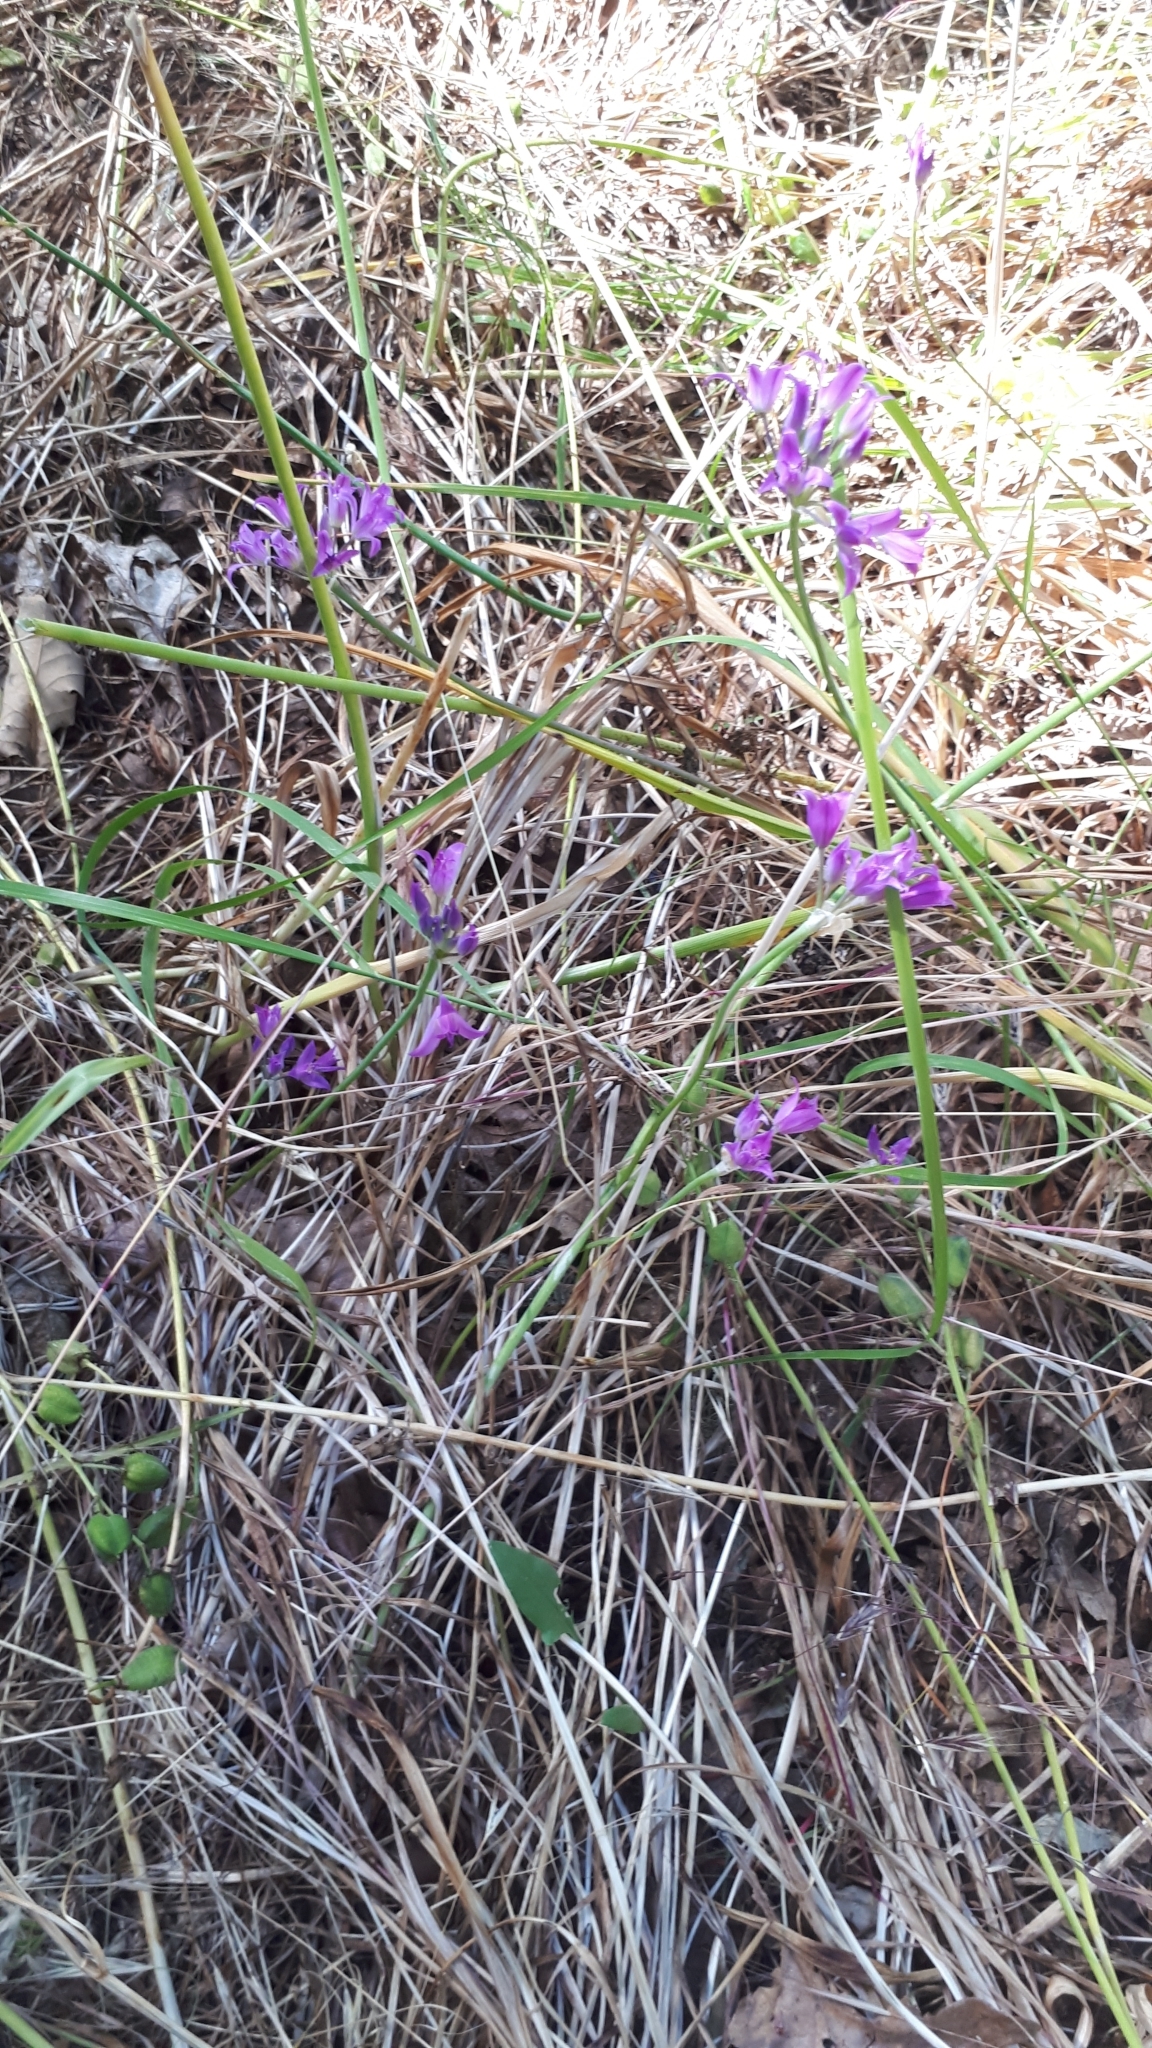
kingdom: Plantae
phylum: Tracheophyta
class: Liliopsida
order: Asparagales
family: Amaryllidaceae
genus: Allium
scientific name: Allium acuminatum
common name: Hooker's onion
